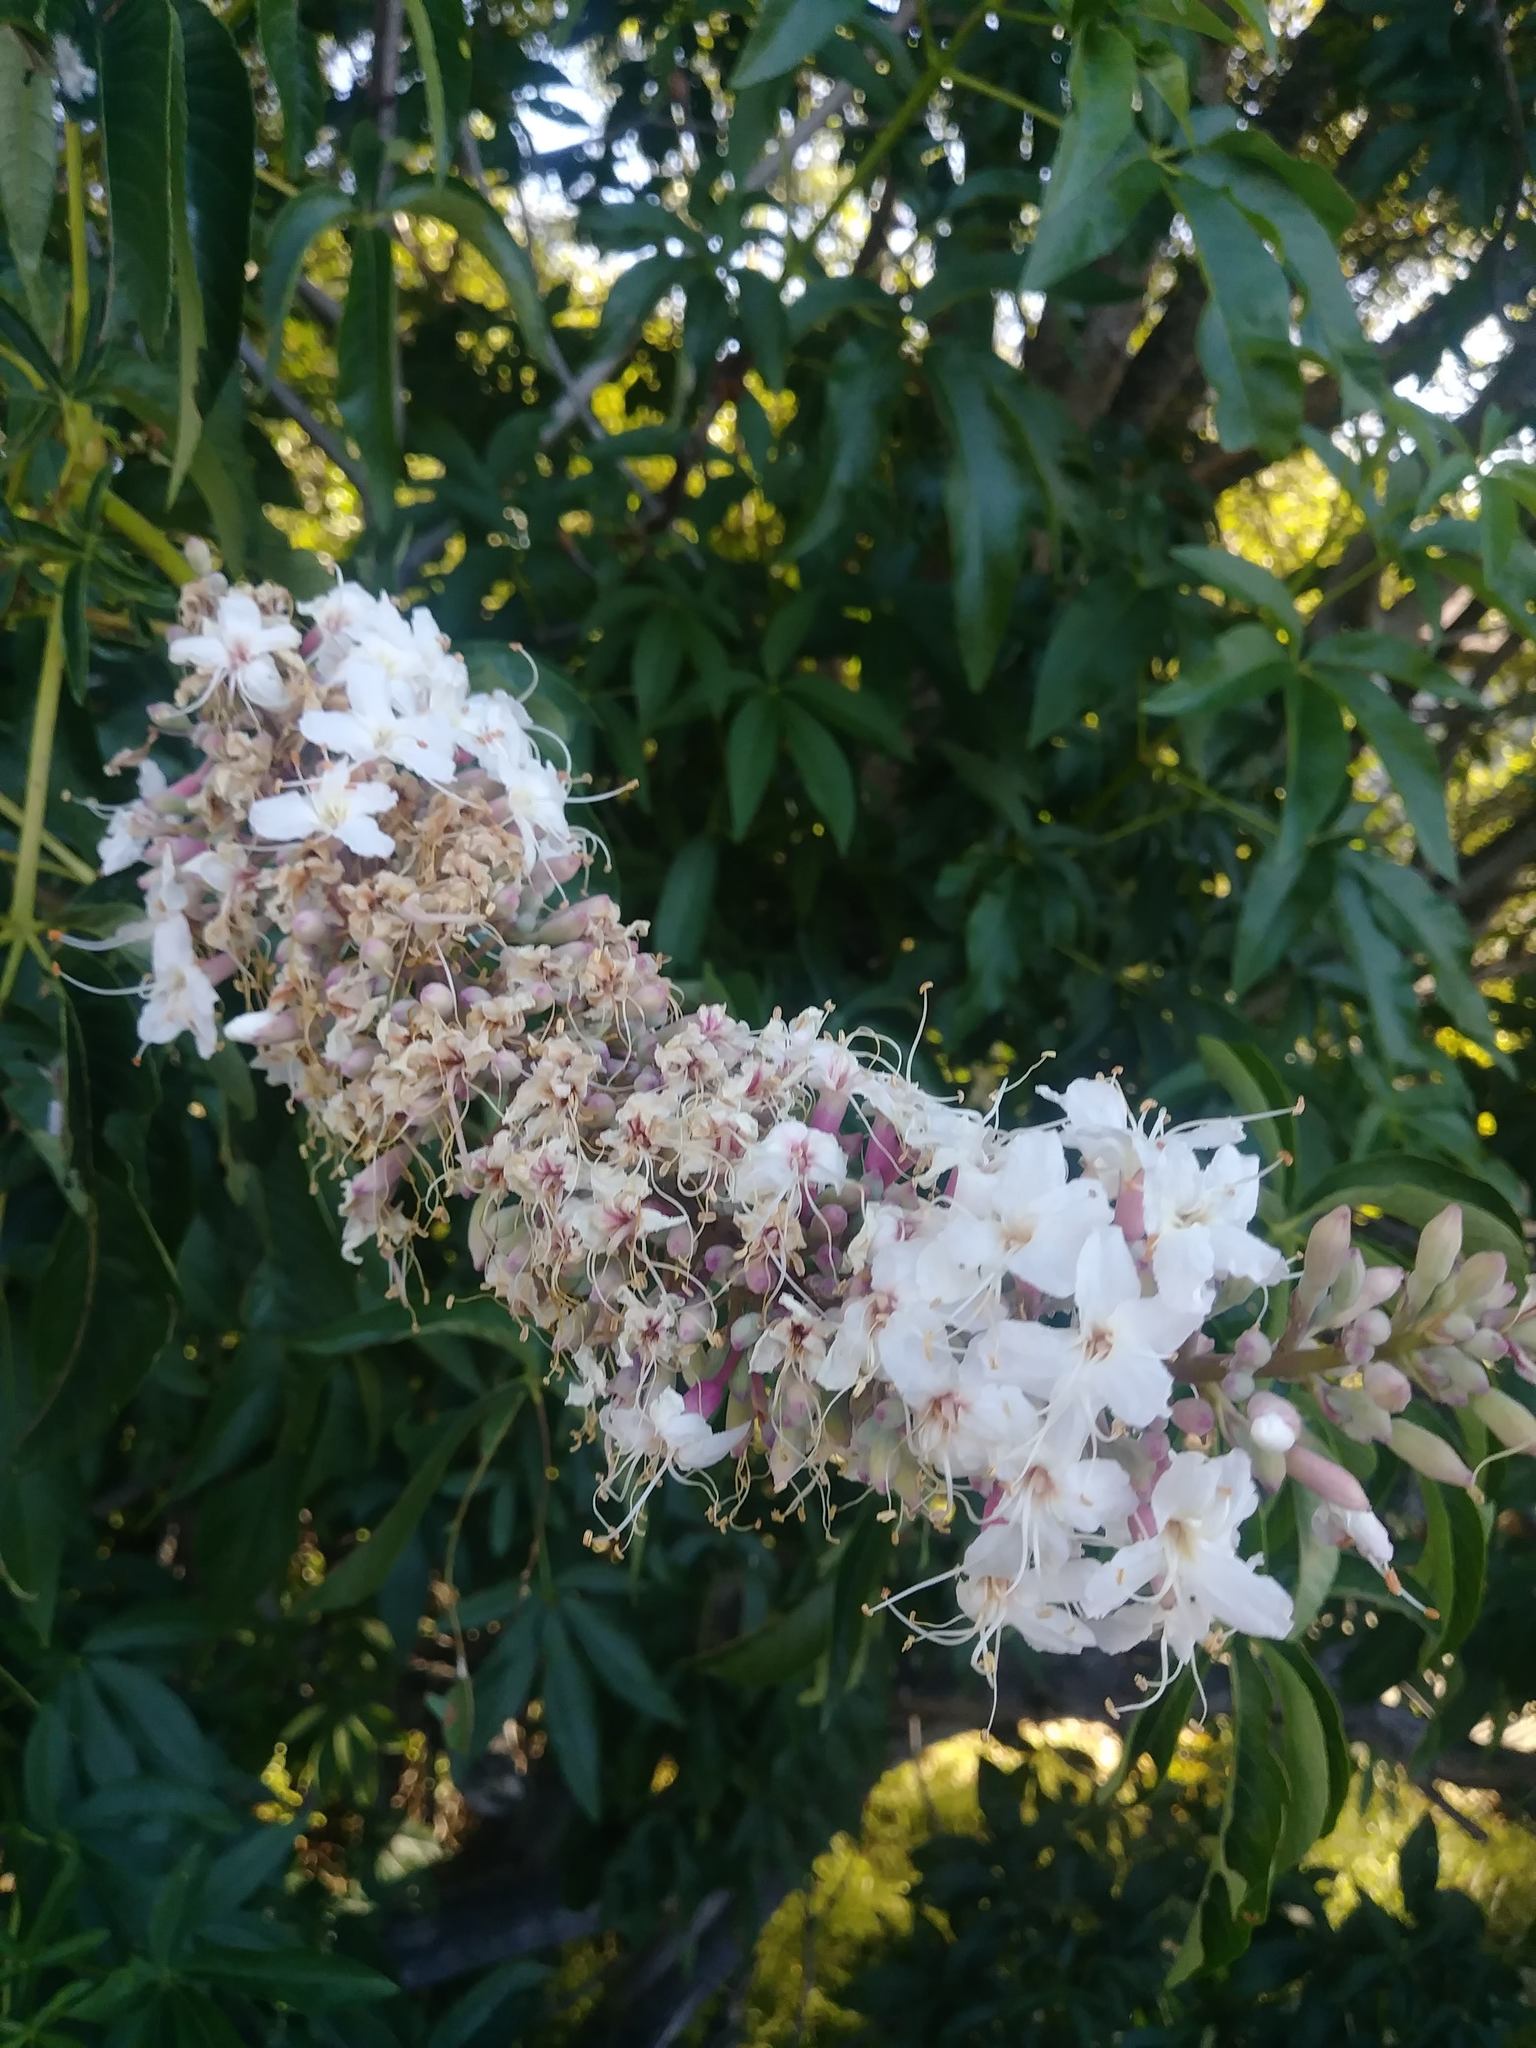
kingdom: Plantae
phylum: Tracheophyta
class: Magnoliopsida
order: Sapindales
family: Sapindaceae
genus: Aesculus
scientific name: Aesculus californica
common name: California buckeye
